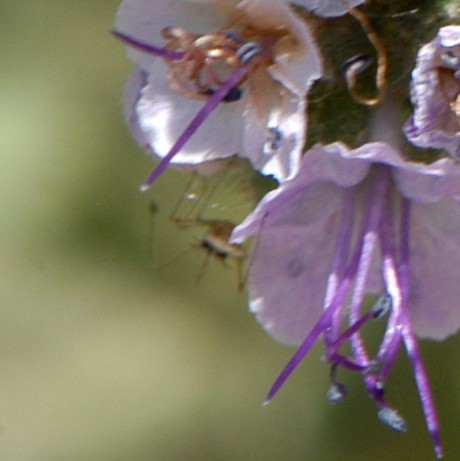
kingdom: Animalia
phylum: Arthropoda
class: Insecta
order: Hemiptera
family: Berytidae
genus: Pronotacantha
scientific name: Pronotacantha annulata
